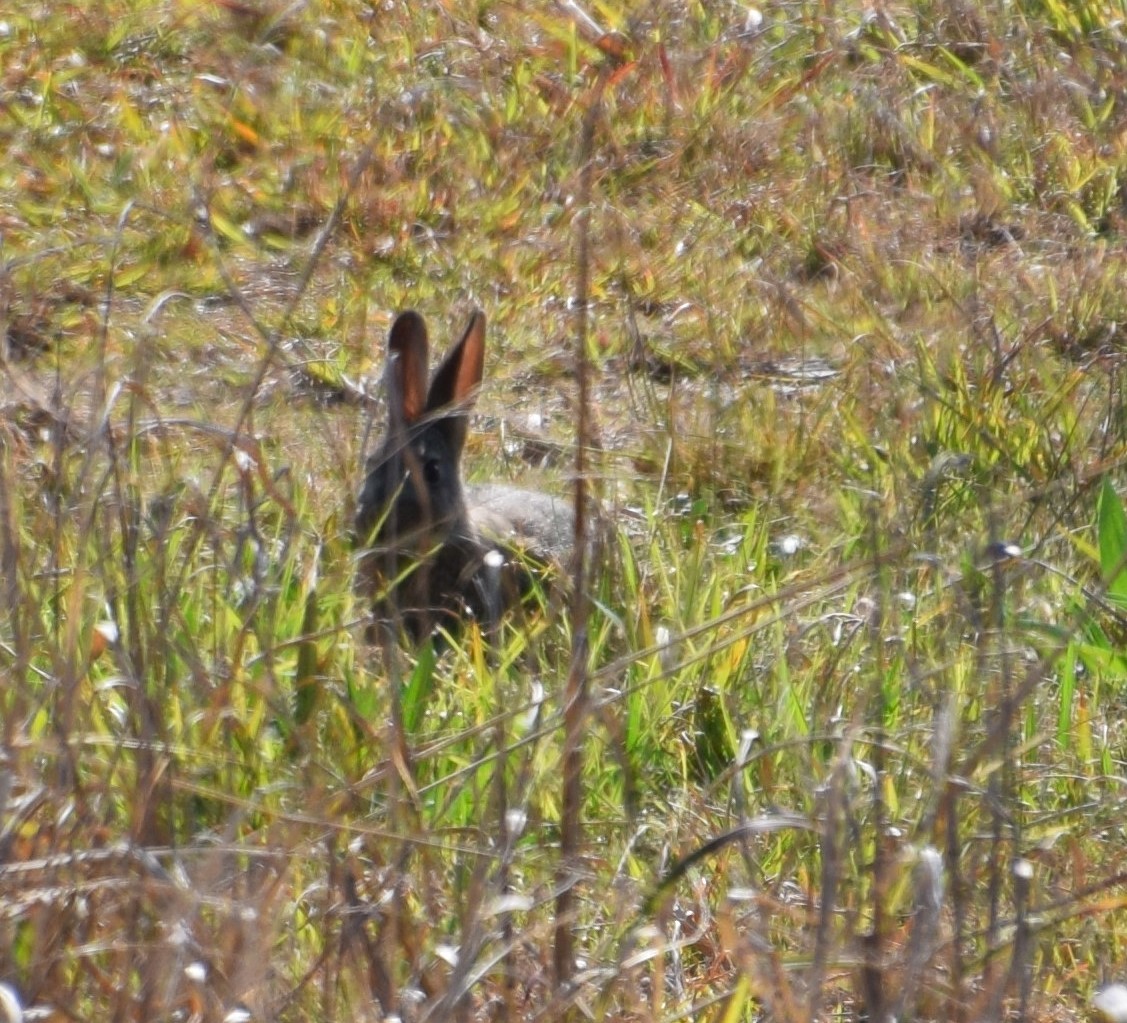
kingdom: Animalia
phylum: Chordata
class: Mammalia
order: Lagomorpha
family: Leporidae
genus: Oryctolagus
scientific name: Oryctolagus cuniculus
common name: European rabbit
